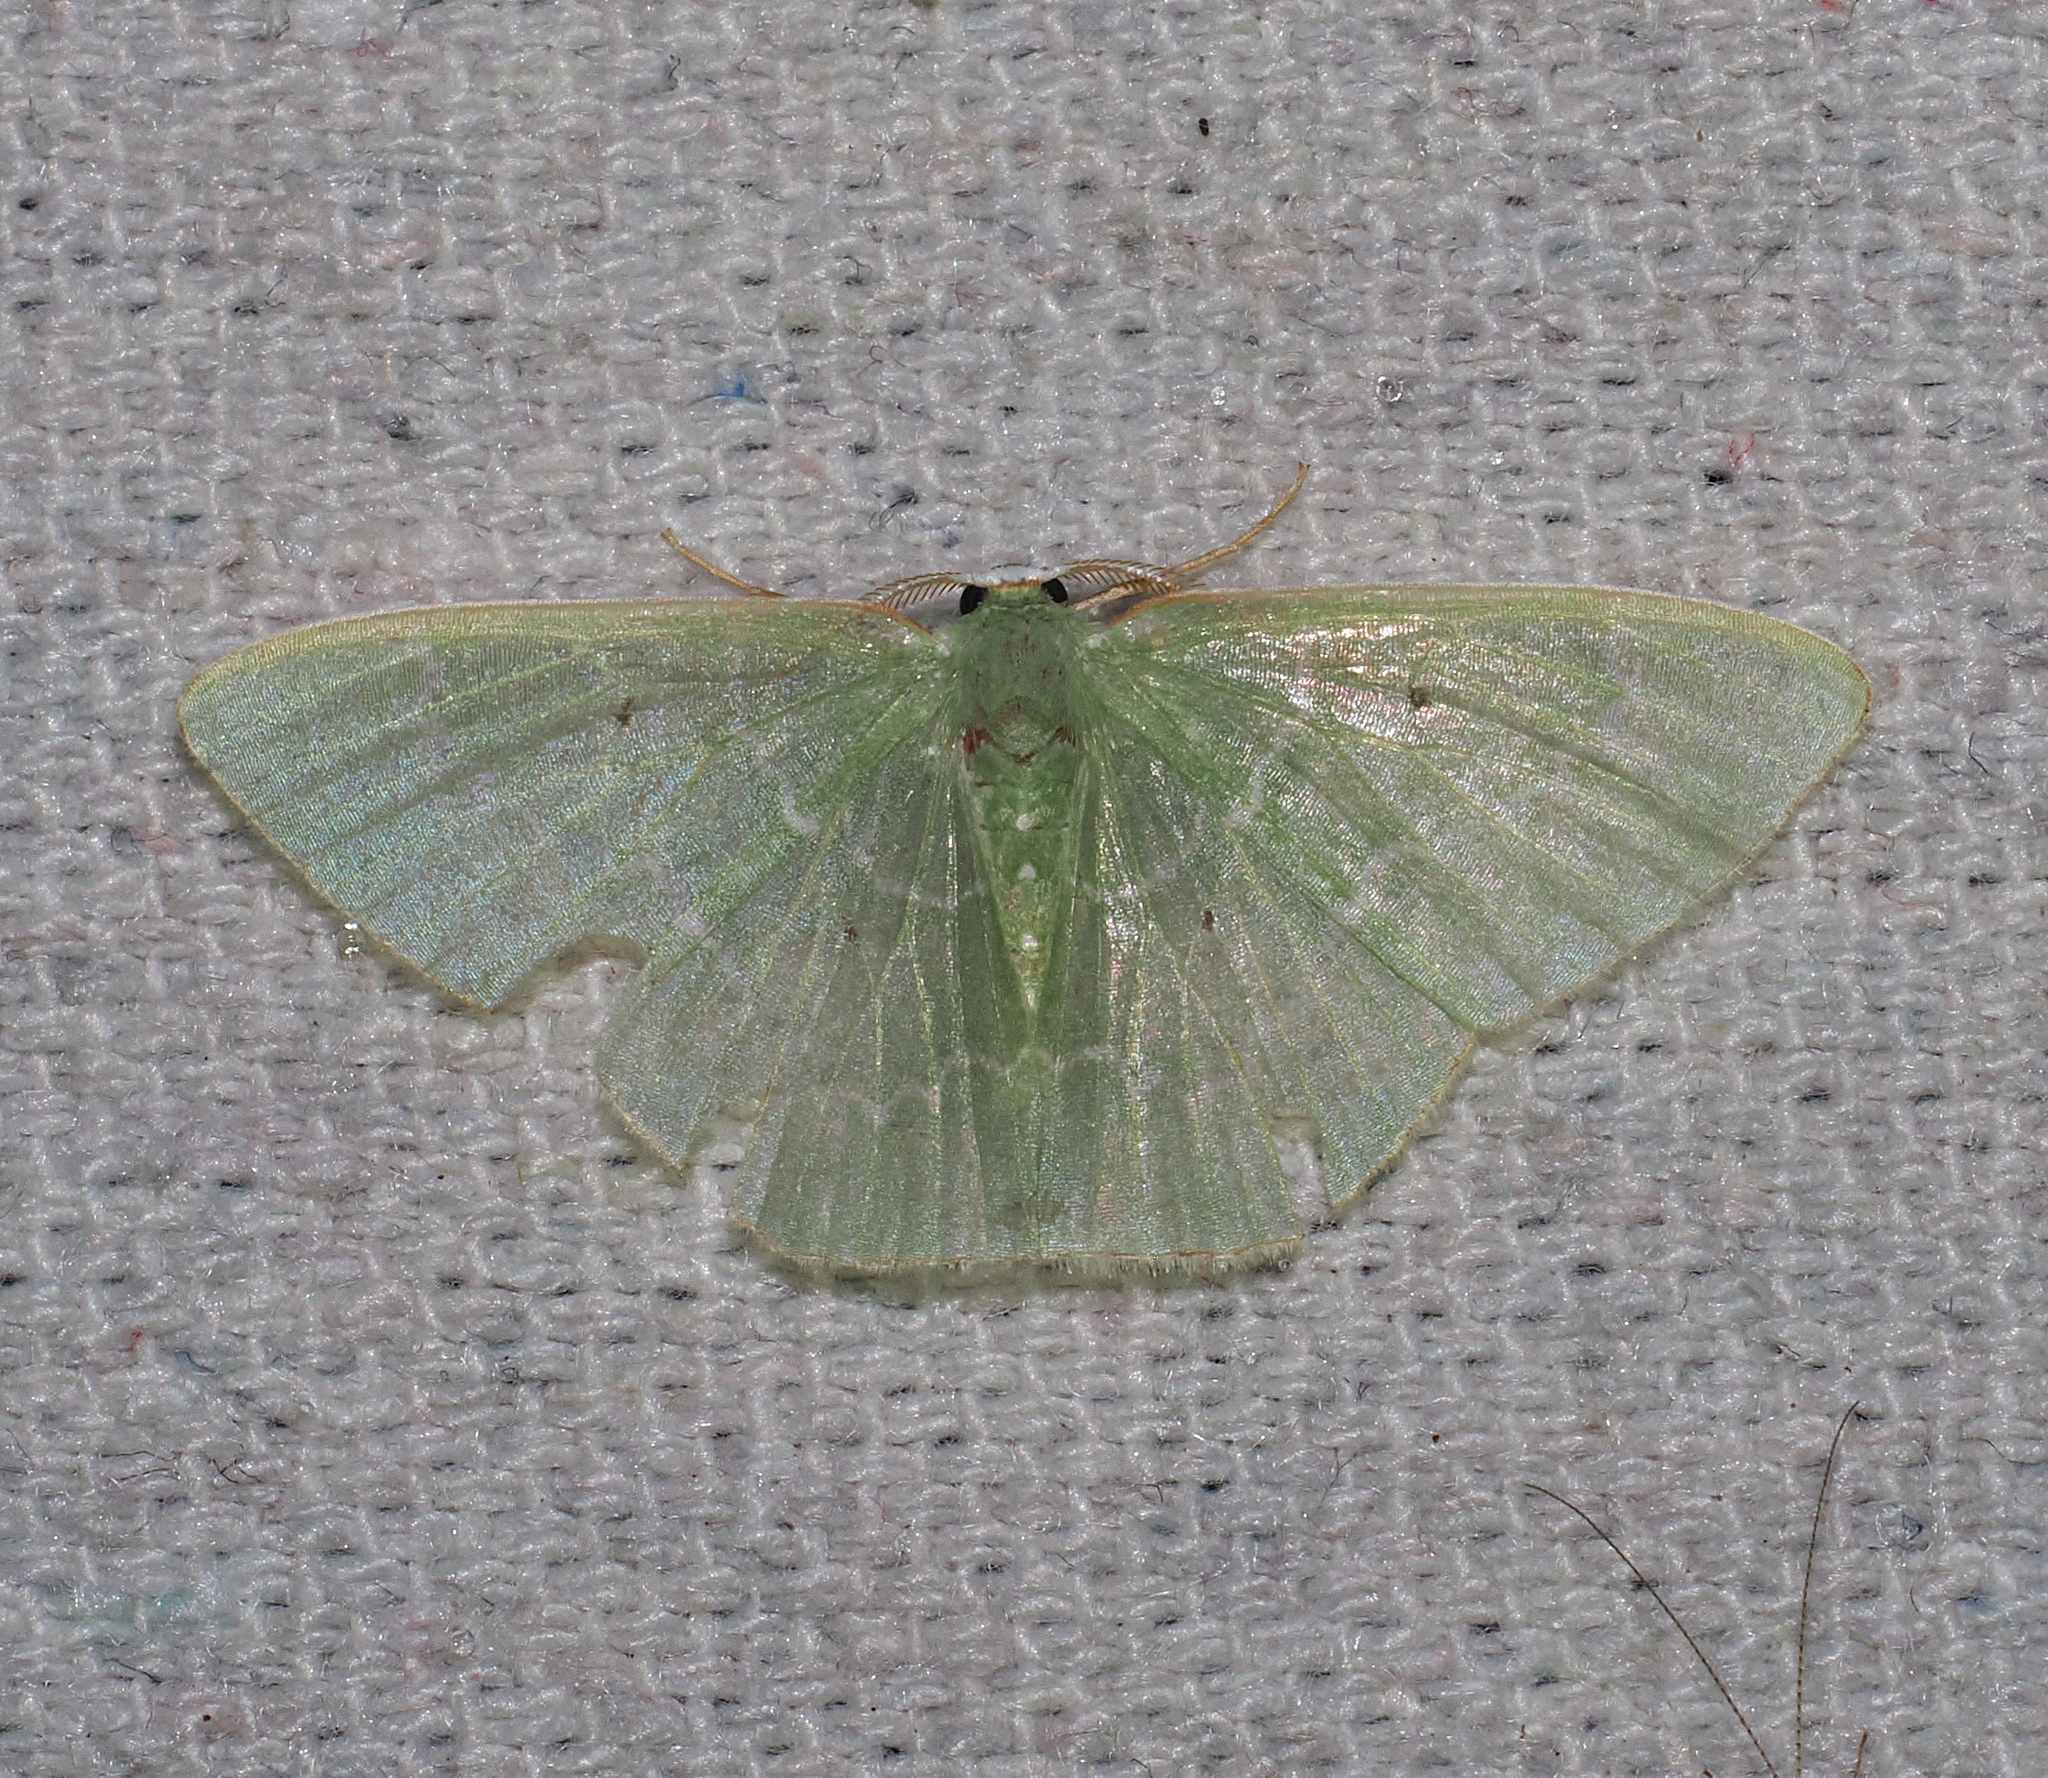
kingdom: Animalia
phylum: Arthropoda
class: Insecta
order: Lepidoptera
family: Geometridae
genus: Nemoria
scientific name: Nemoria gladysae
